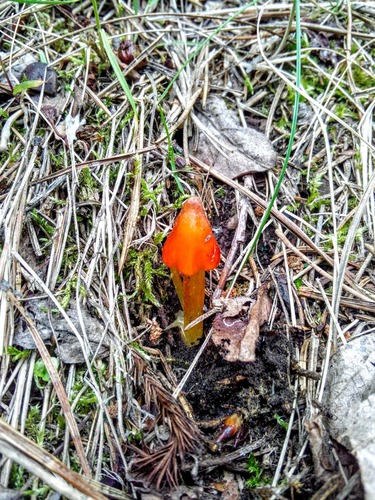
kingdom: Fungi
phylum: Basidiomycota
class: Agaricomycetes
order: Agaricales
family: Hygrophoraceae
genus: Hygrocybe
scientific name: Hygrocybe conica
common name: Blackening wax-cap
